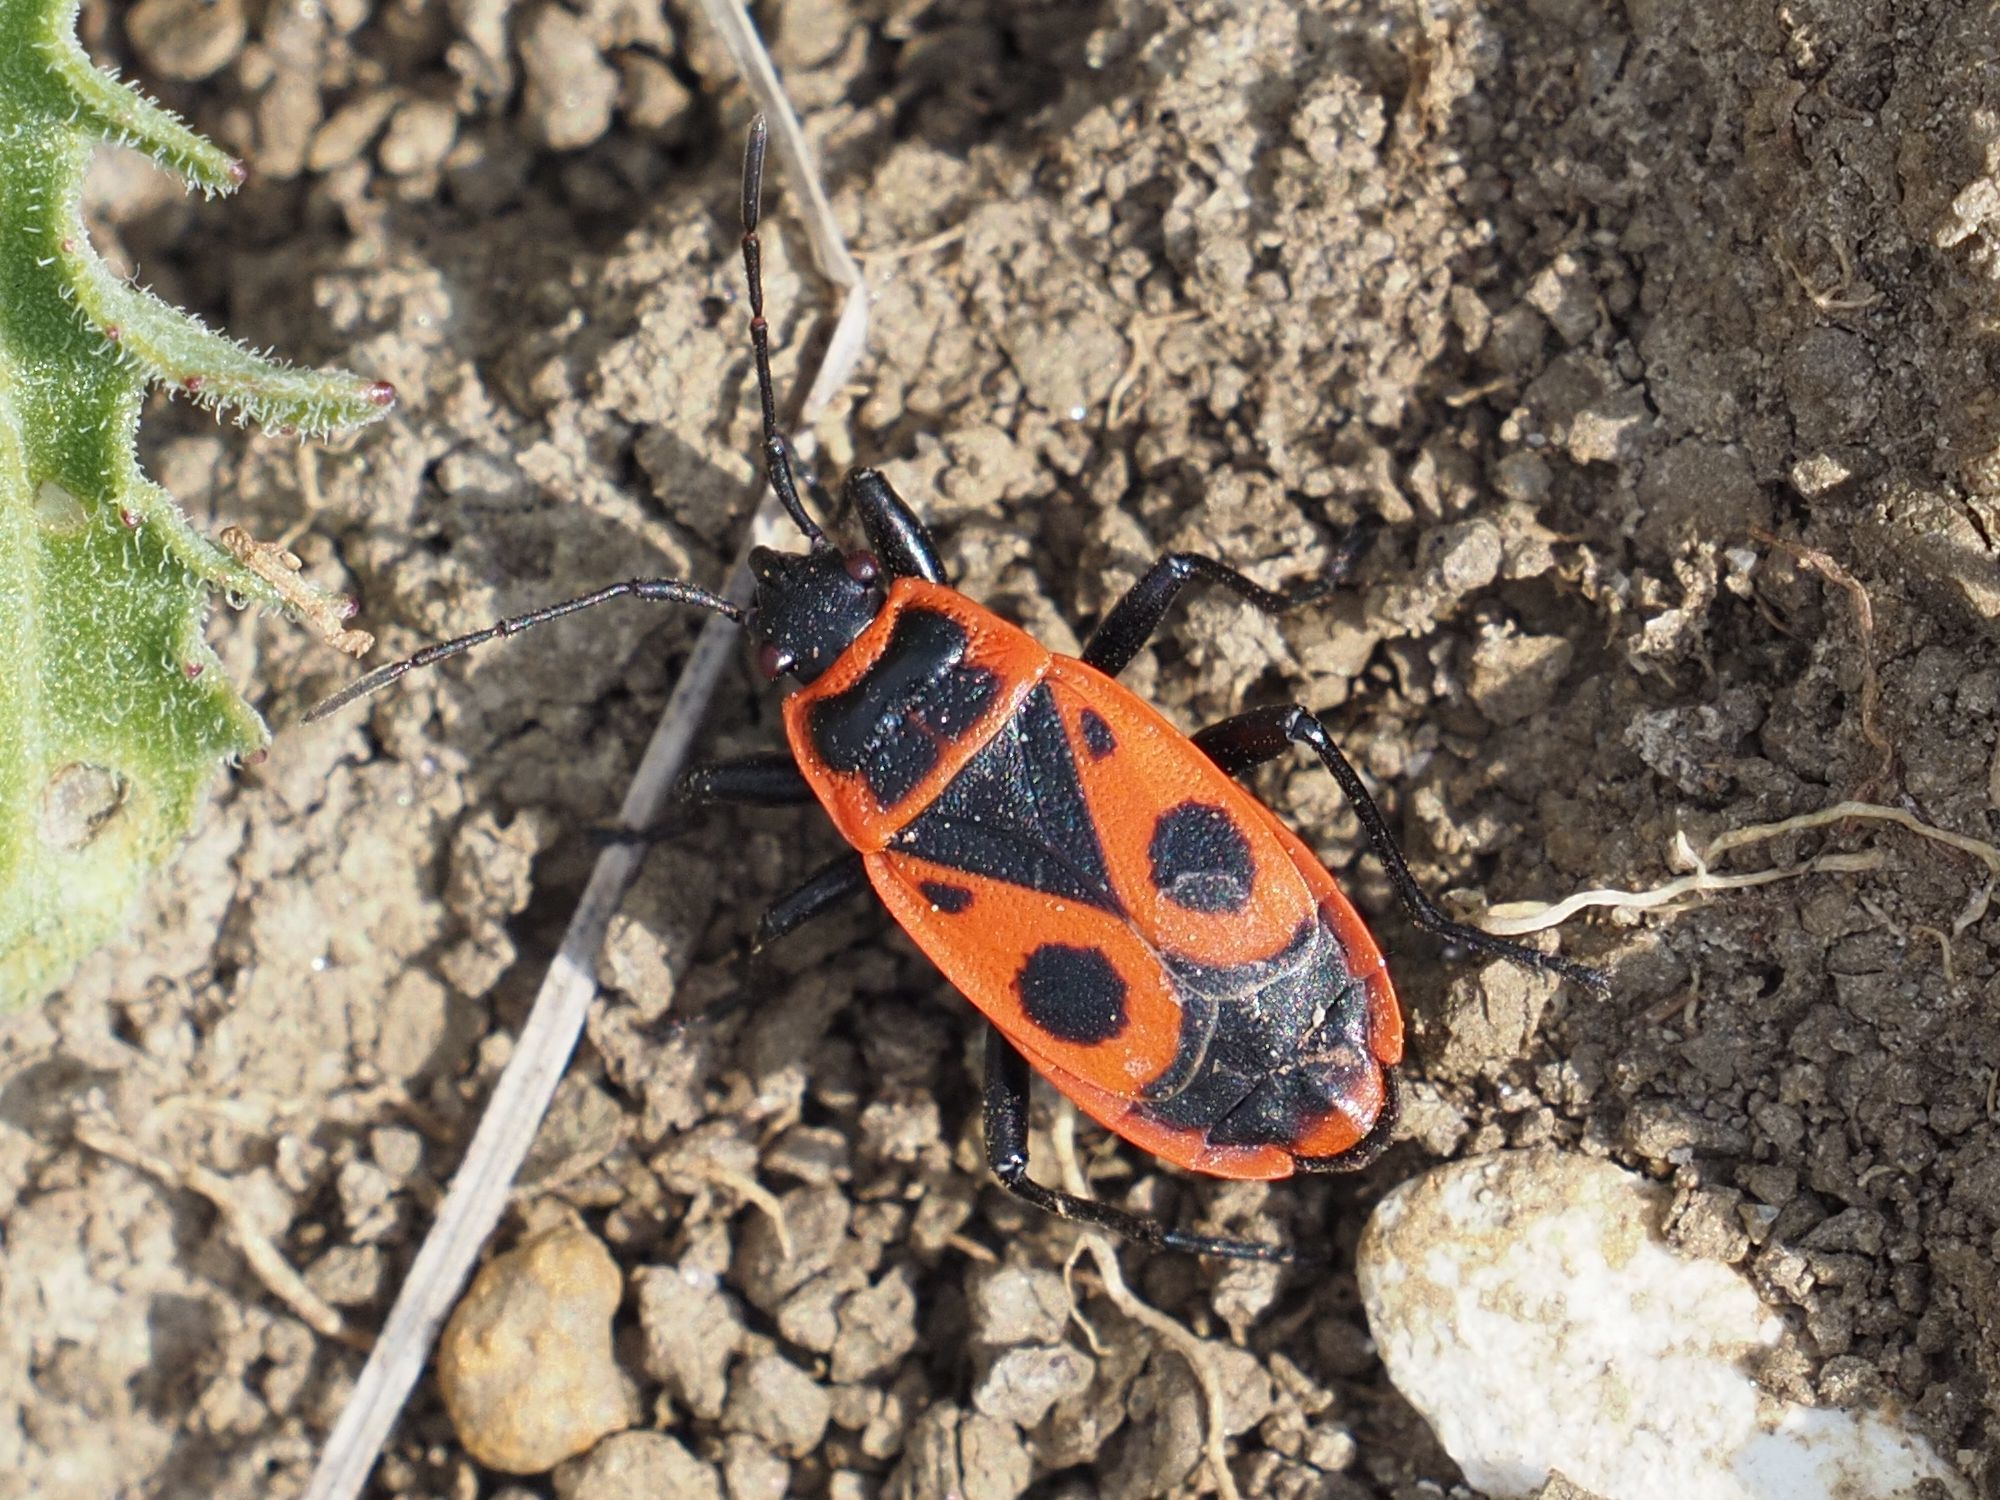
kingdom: Animalia
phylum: Arthropoda
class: Insecta
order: Hemiptera
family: Pyrrhocoridae
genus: Pyrrhocoris
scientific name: Pyrrhocoris apterus
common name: Firebug
